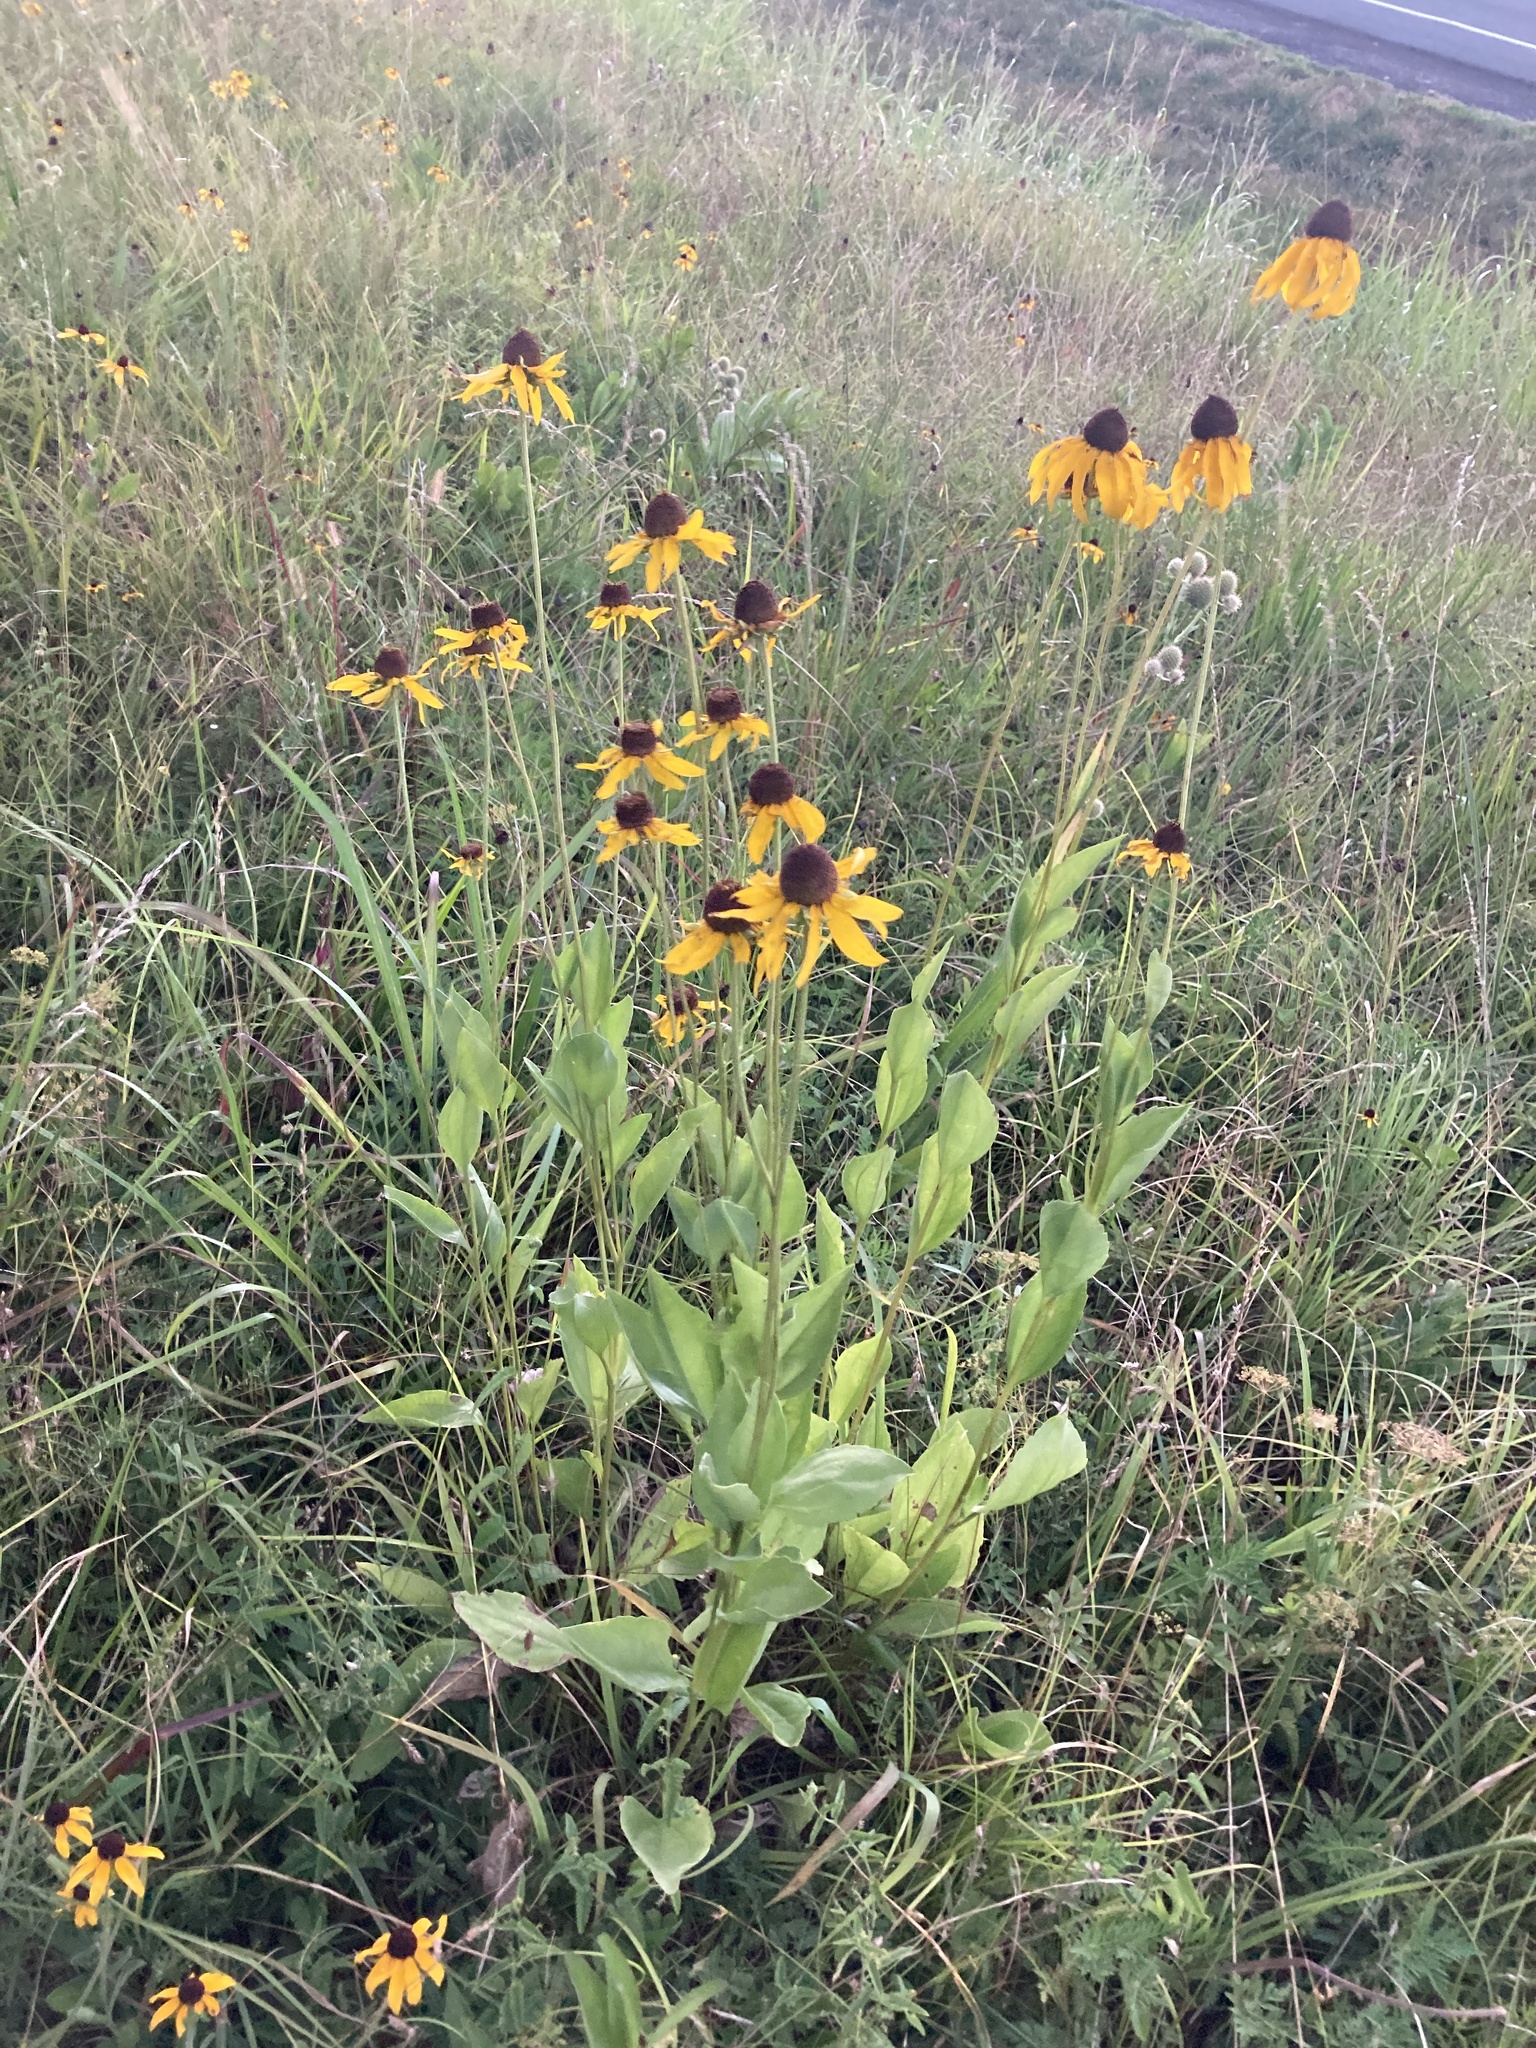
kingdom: Plantae
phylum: Tracheophyta
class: Magnoliopsida
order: Asterales
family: Asteraceae
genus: Rudbeckia
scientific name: Rudbeckia grandiflora
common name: Large-flowered coneflower
